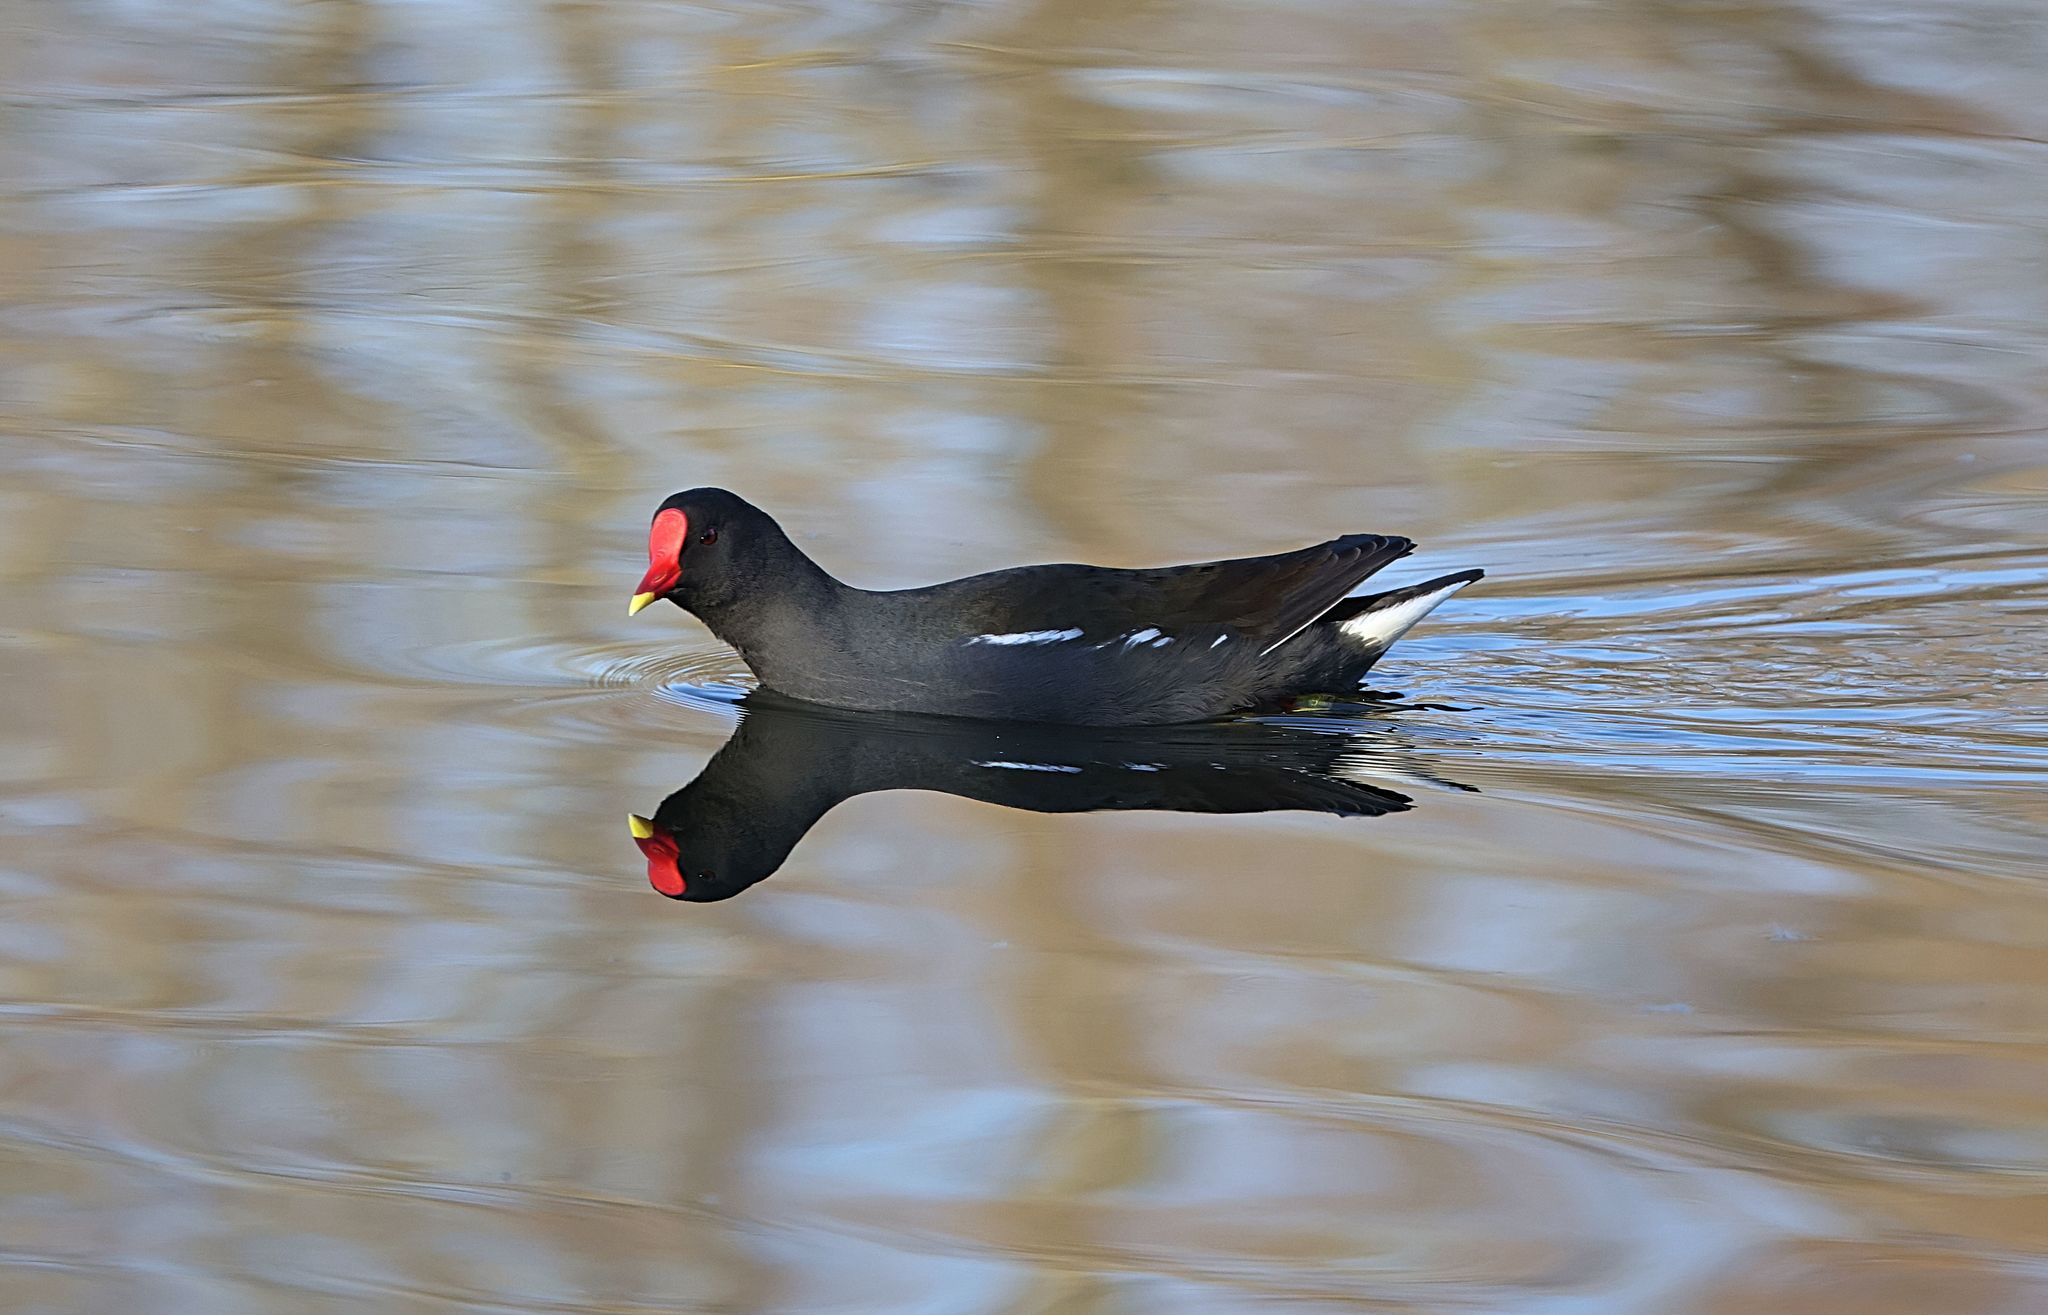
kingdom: Animalia
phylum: Chordata
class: Aves
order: Gruiformes
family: Rallidae
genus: Gallinula
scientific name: Gallinula chloropus
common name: Common moorhen
